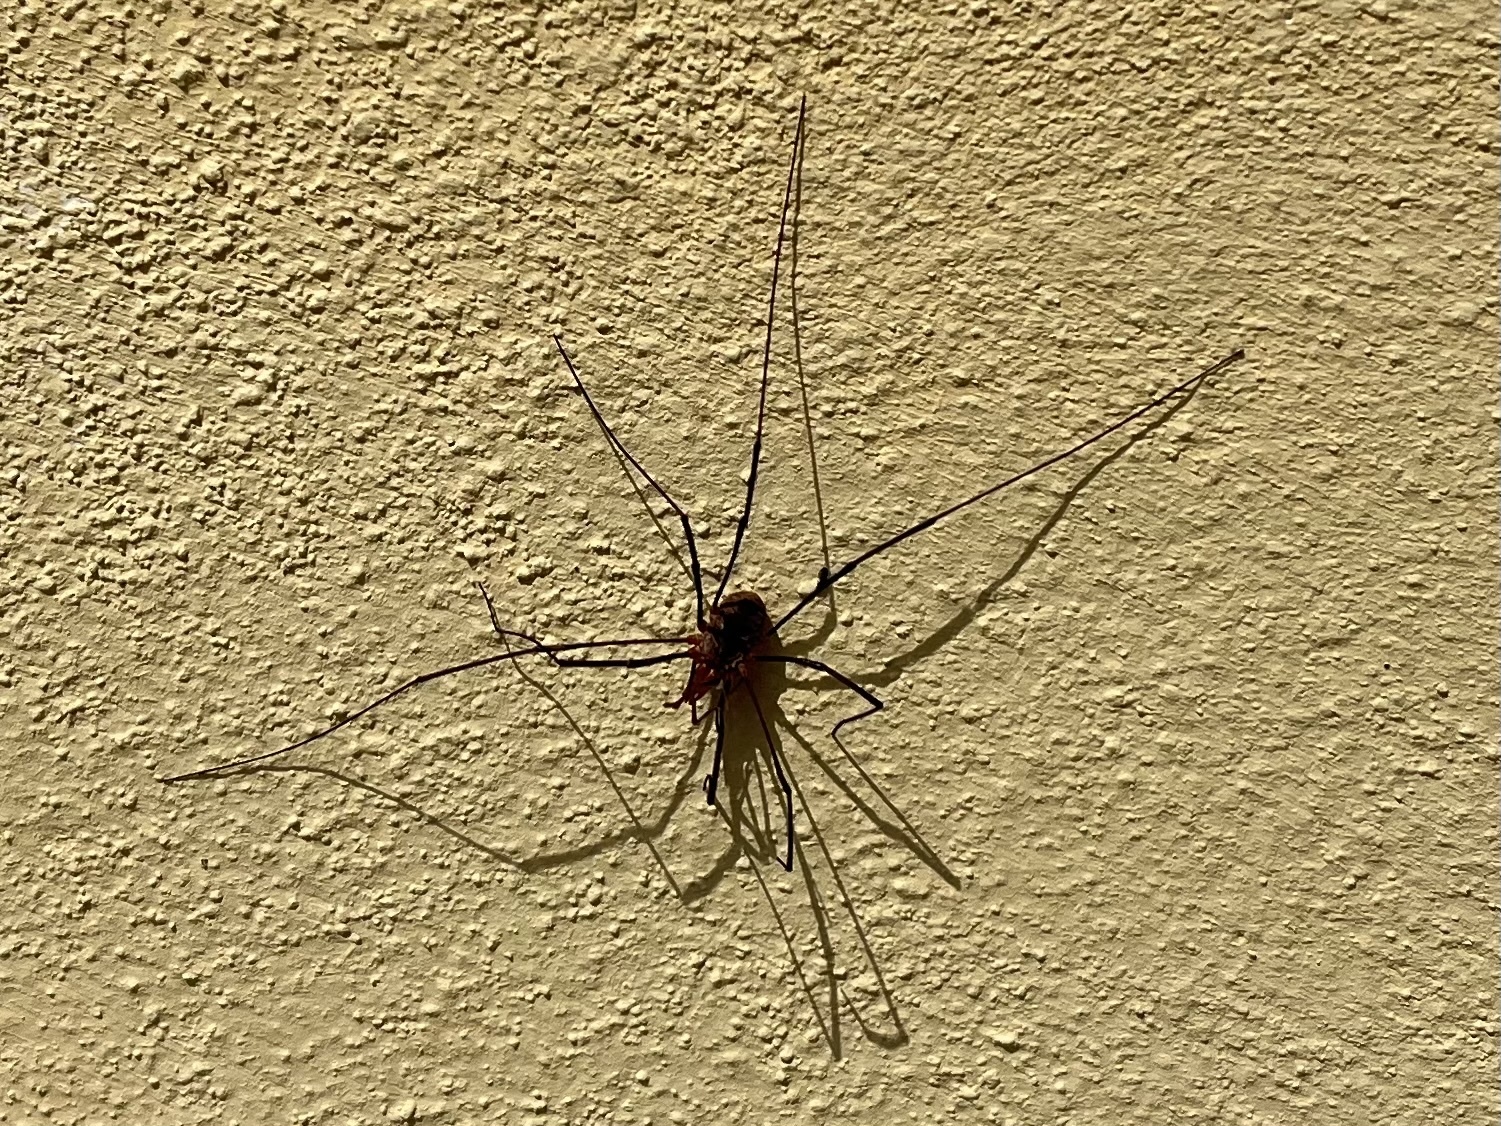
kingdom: Animalia
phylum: Arthropoda
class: Arachnida
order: Opiliones
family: Phalangiidae
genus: Phalangium
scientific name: Phalangium opilio
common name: Daddy longleg
